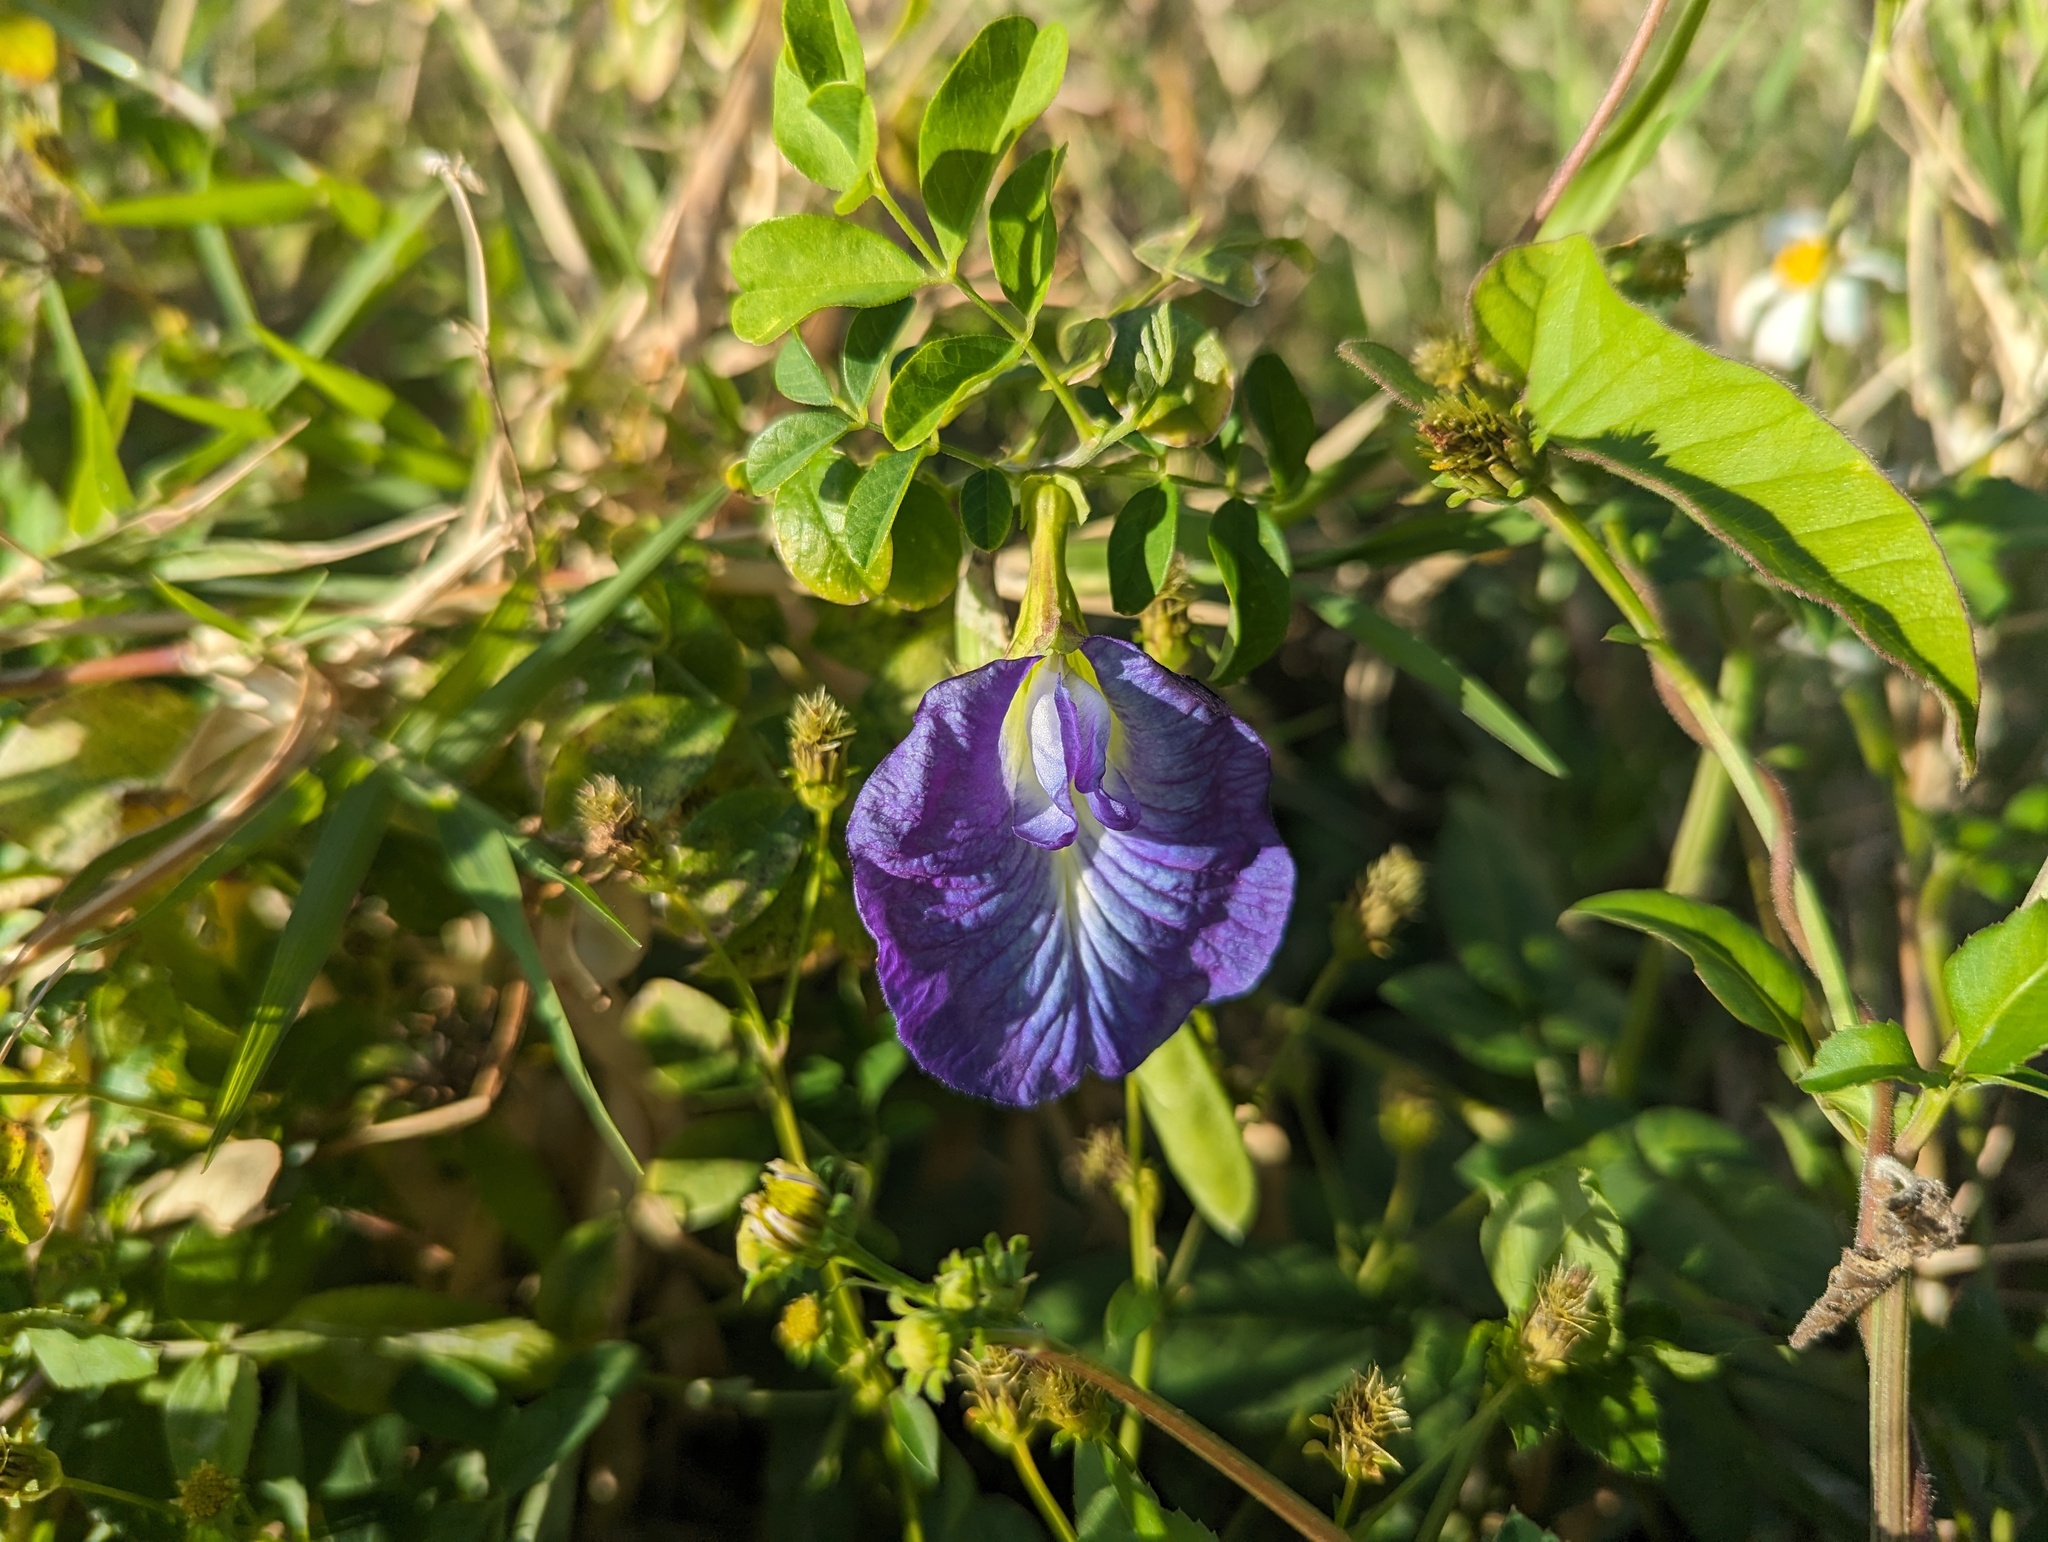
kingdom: Plantae
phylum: Tracheophyta
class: Magnoliopsida
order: Fabales
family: Fabaceae
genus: Clitoria
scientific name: Clitoria ternatea
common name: Asian pigeonwings
